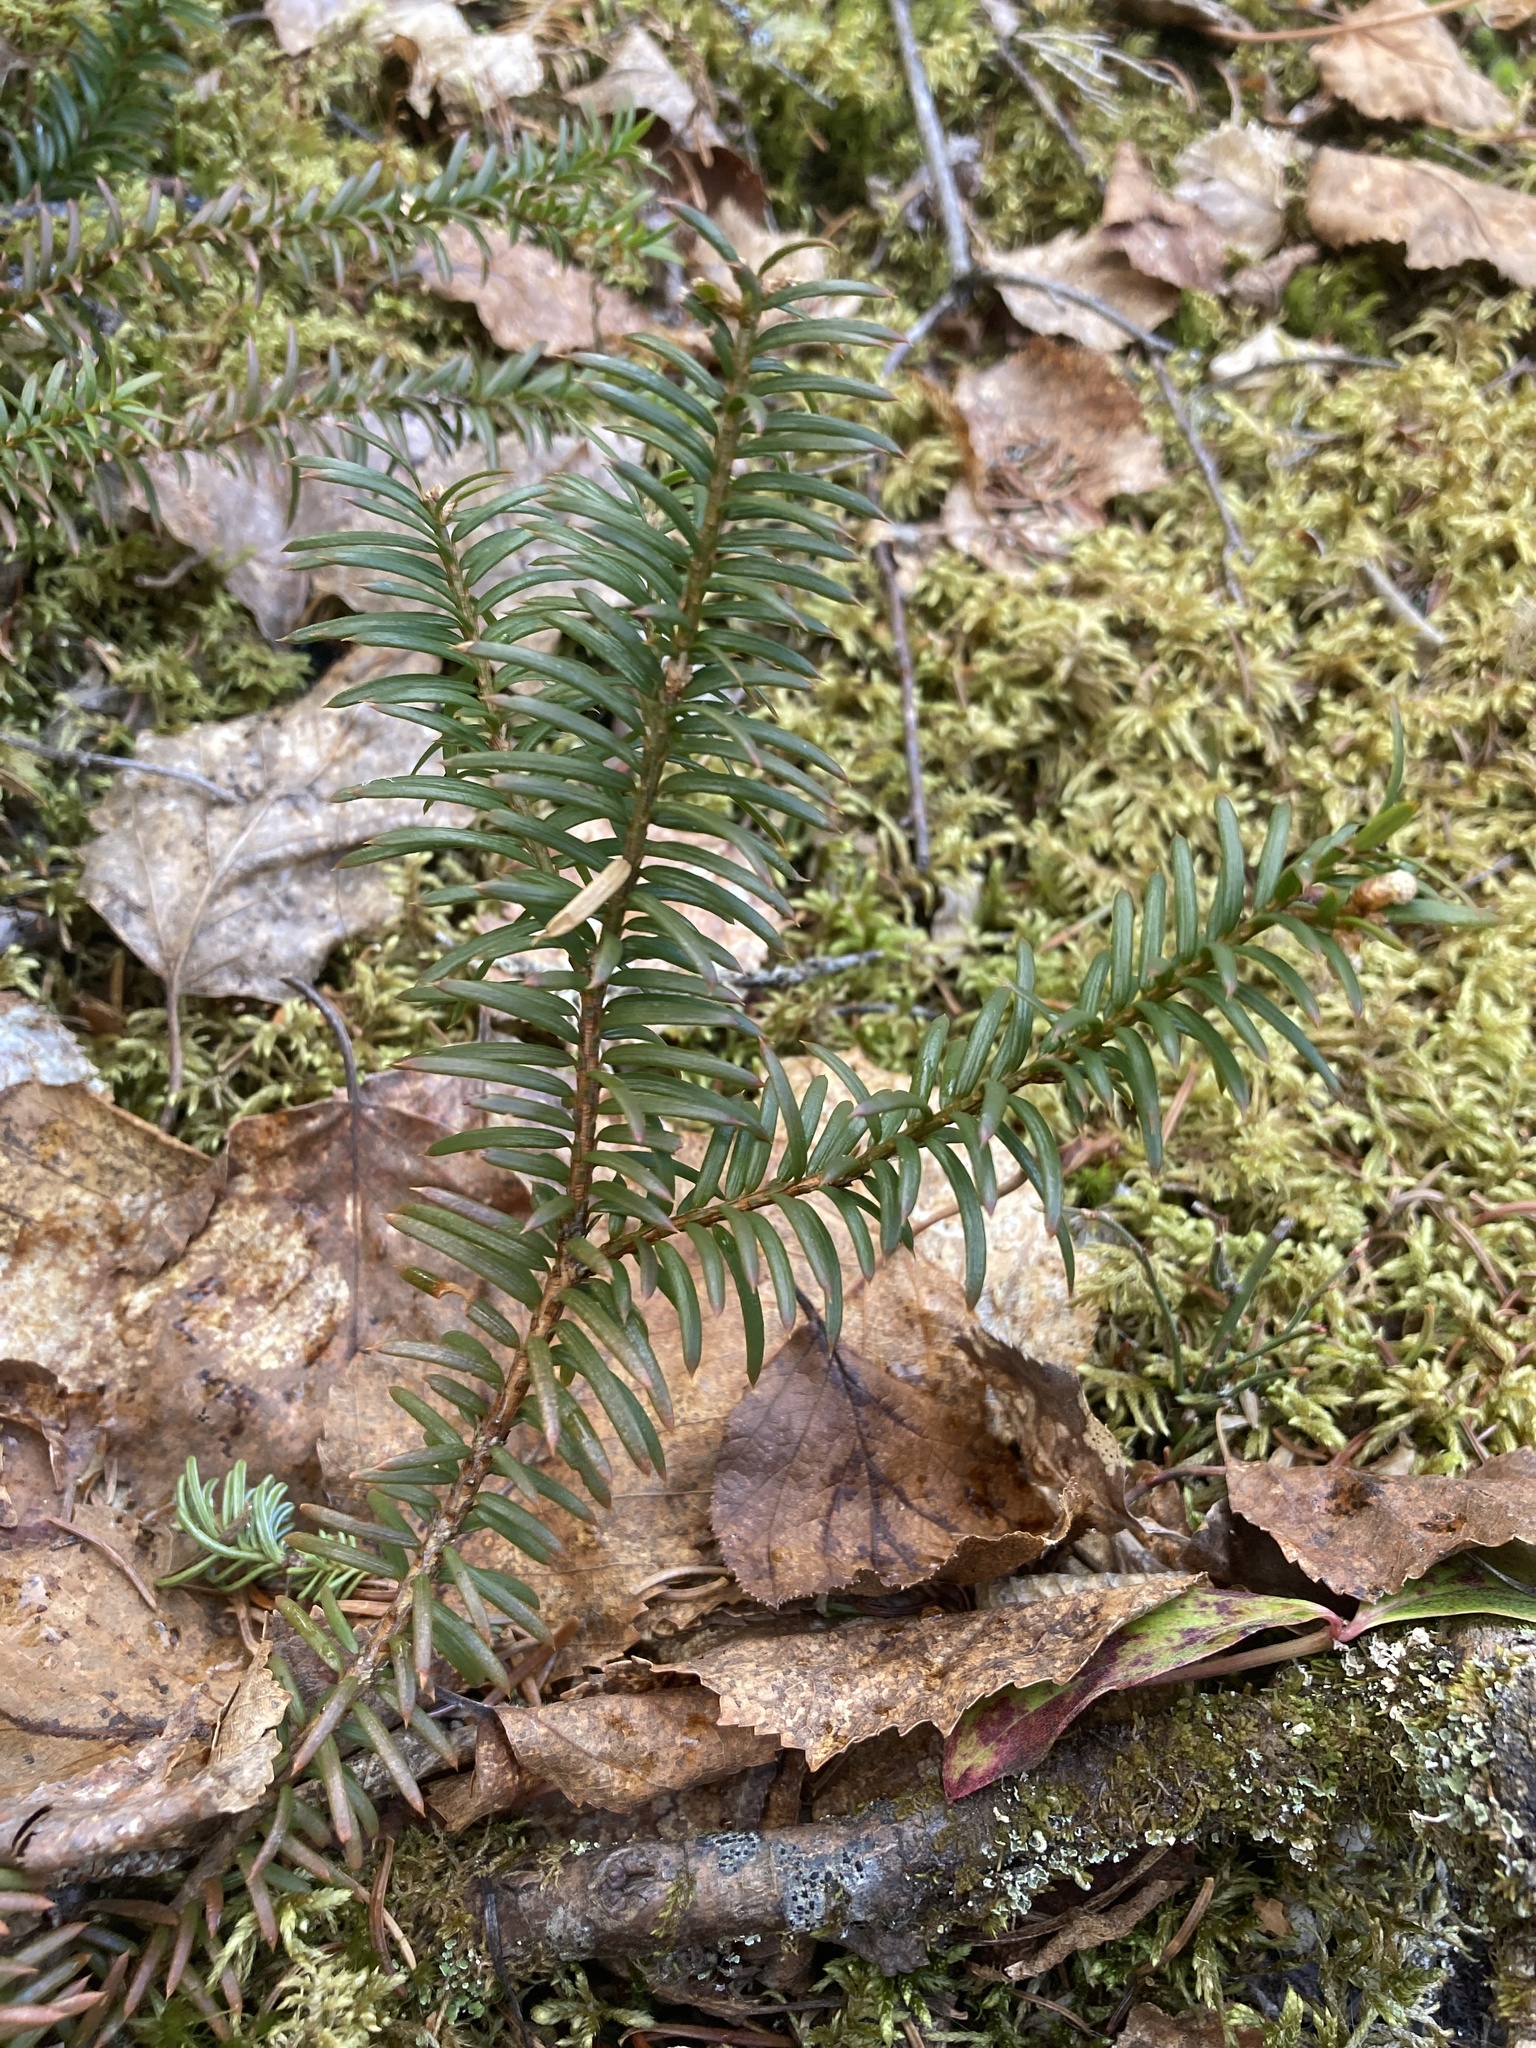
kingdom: Plantae
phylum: Tracheophyta
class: Pinopsida
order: Pinales
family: Taxaceae
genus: Taxus
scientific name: Taxus canadensis
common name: American yew
